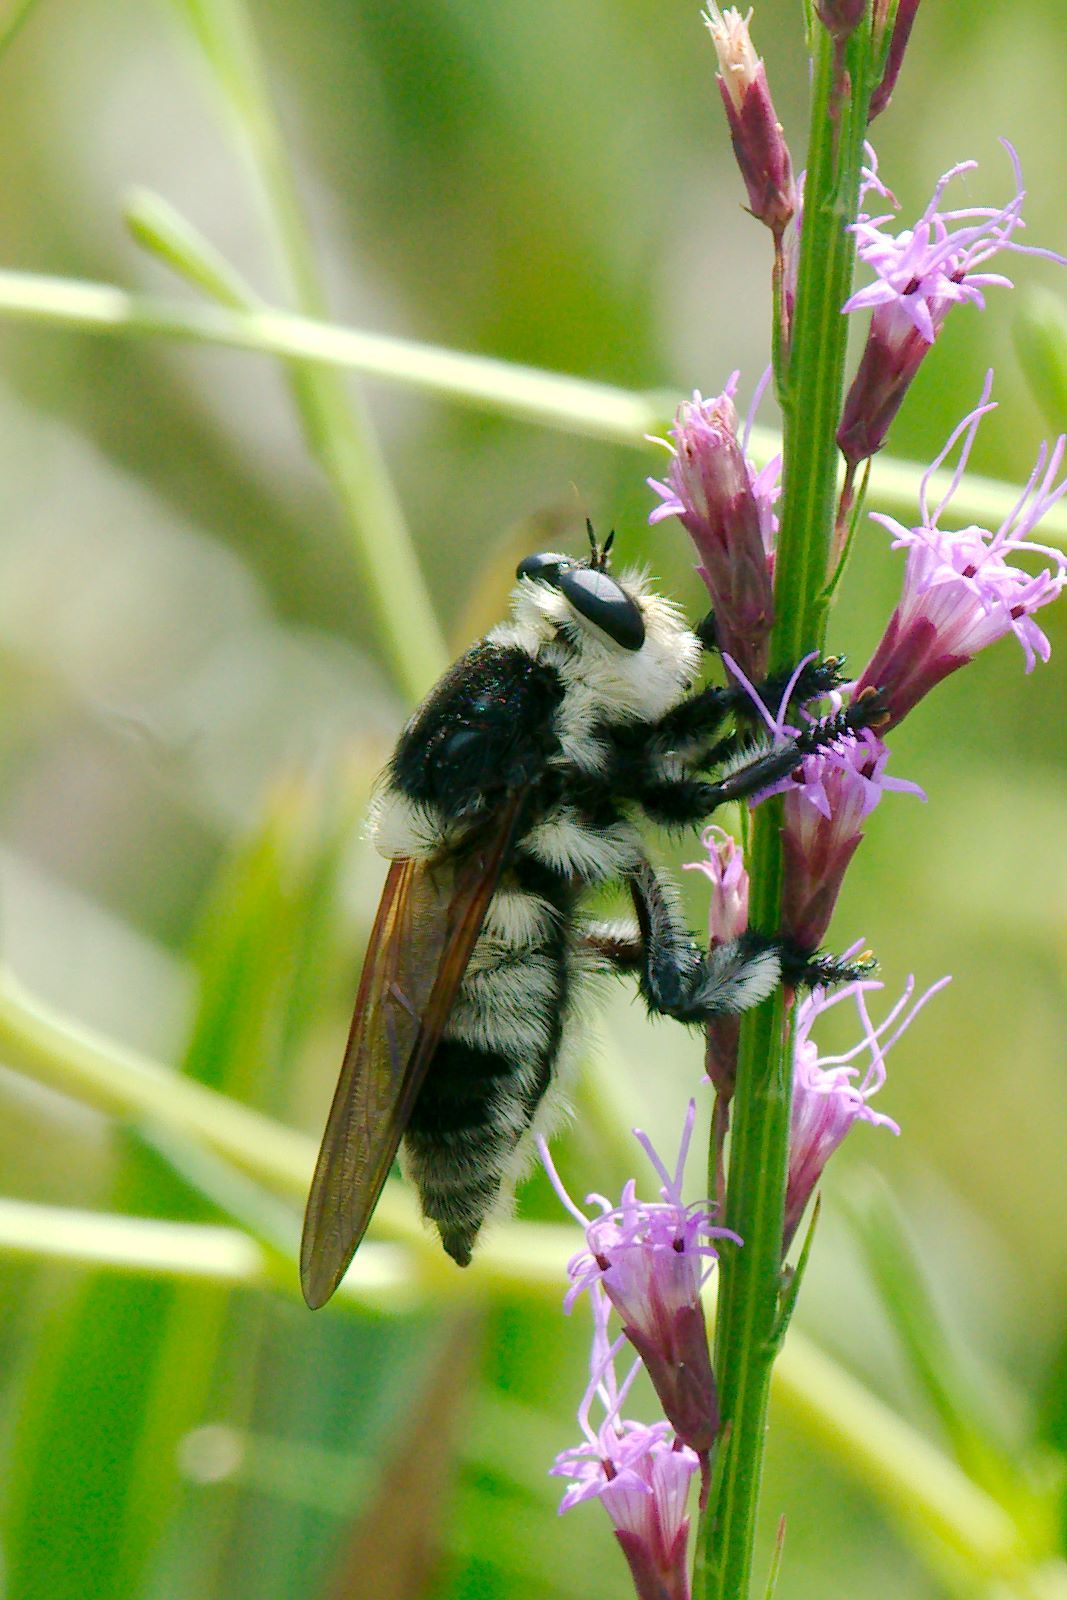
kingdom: Animalia
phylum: Arthropoda
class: Insecta
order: Diptera
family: Asilidae
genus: Mallophora
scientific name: Mallophora bomboides
